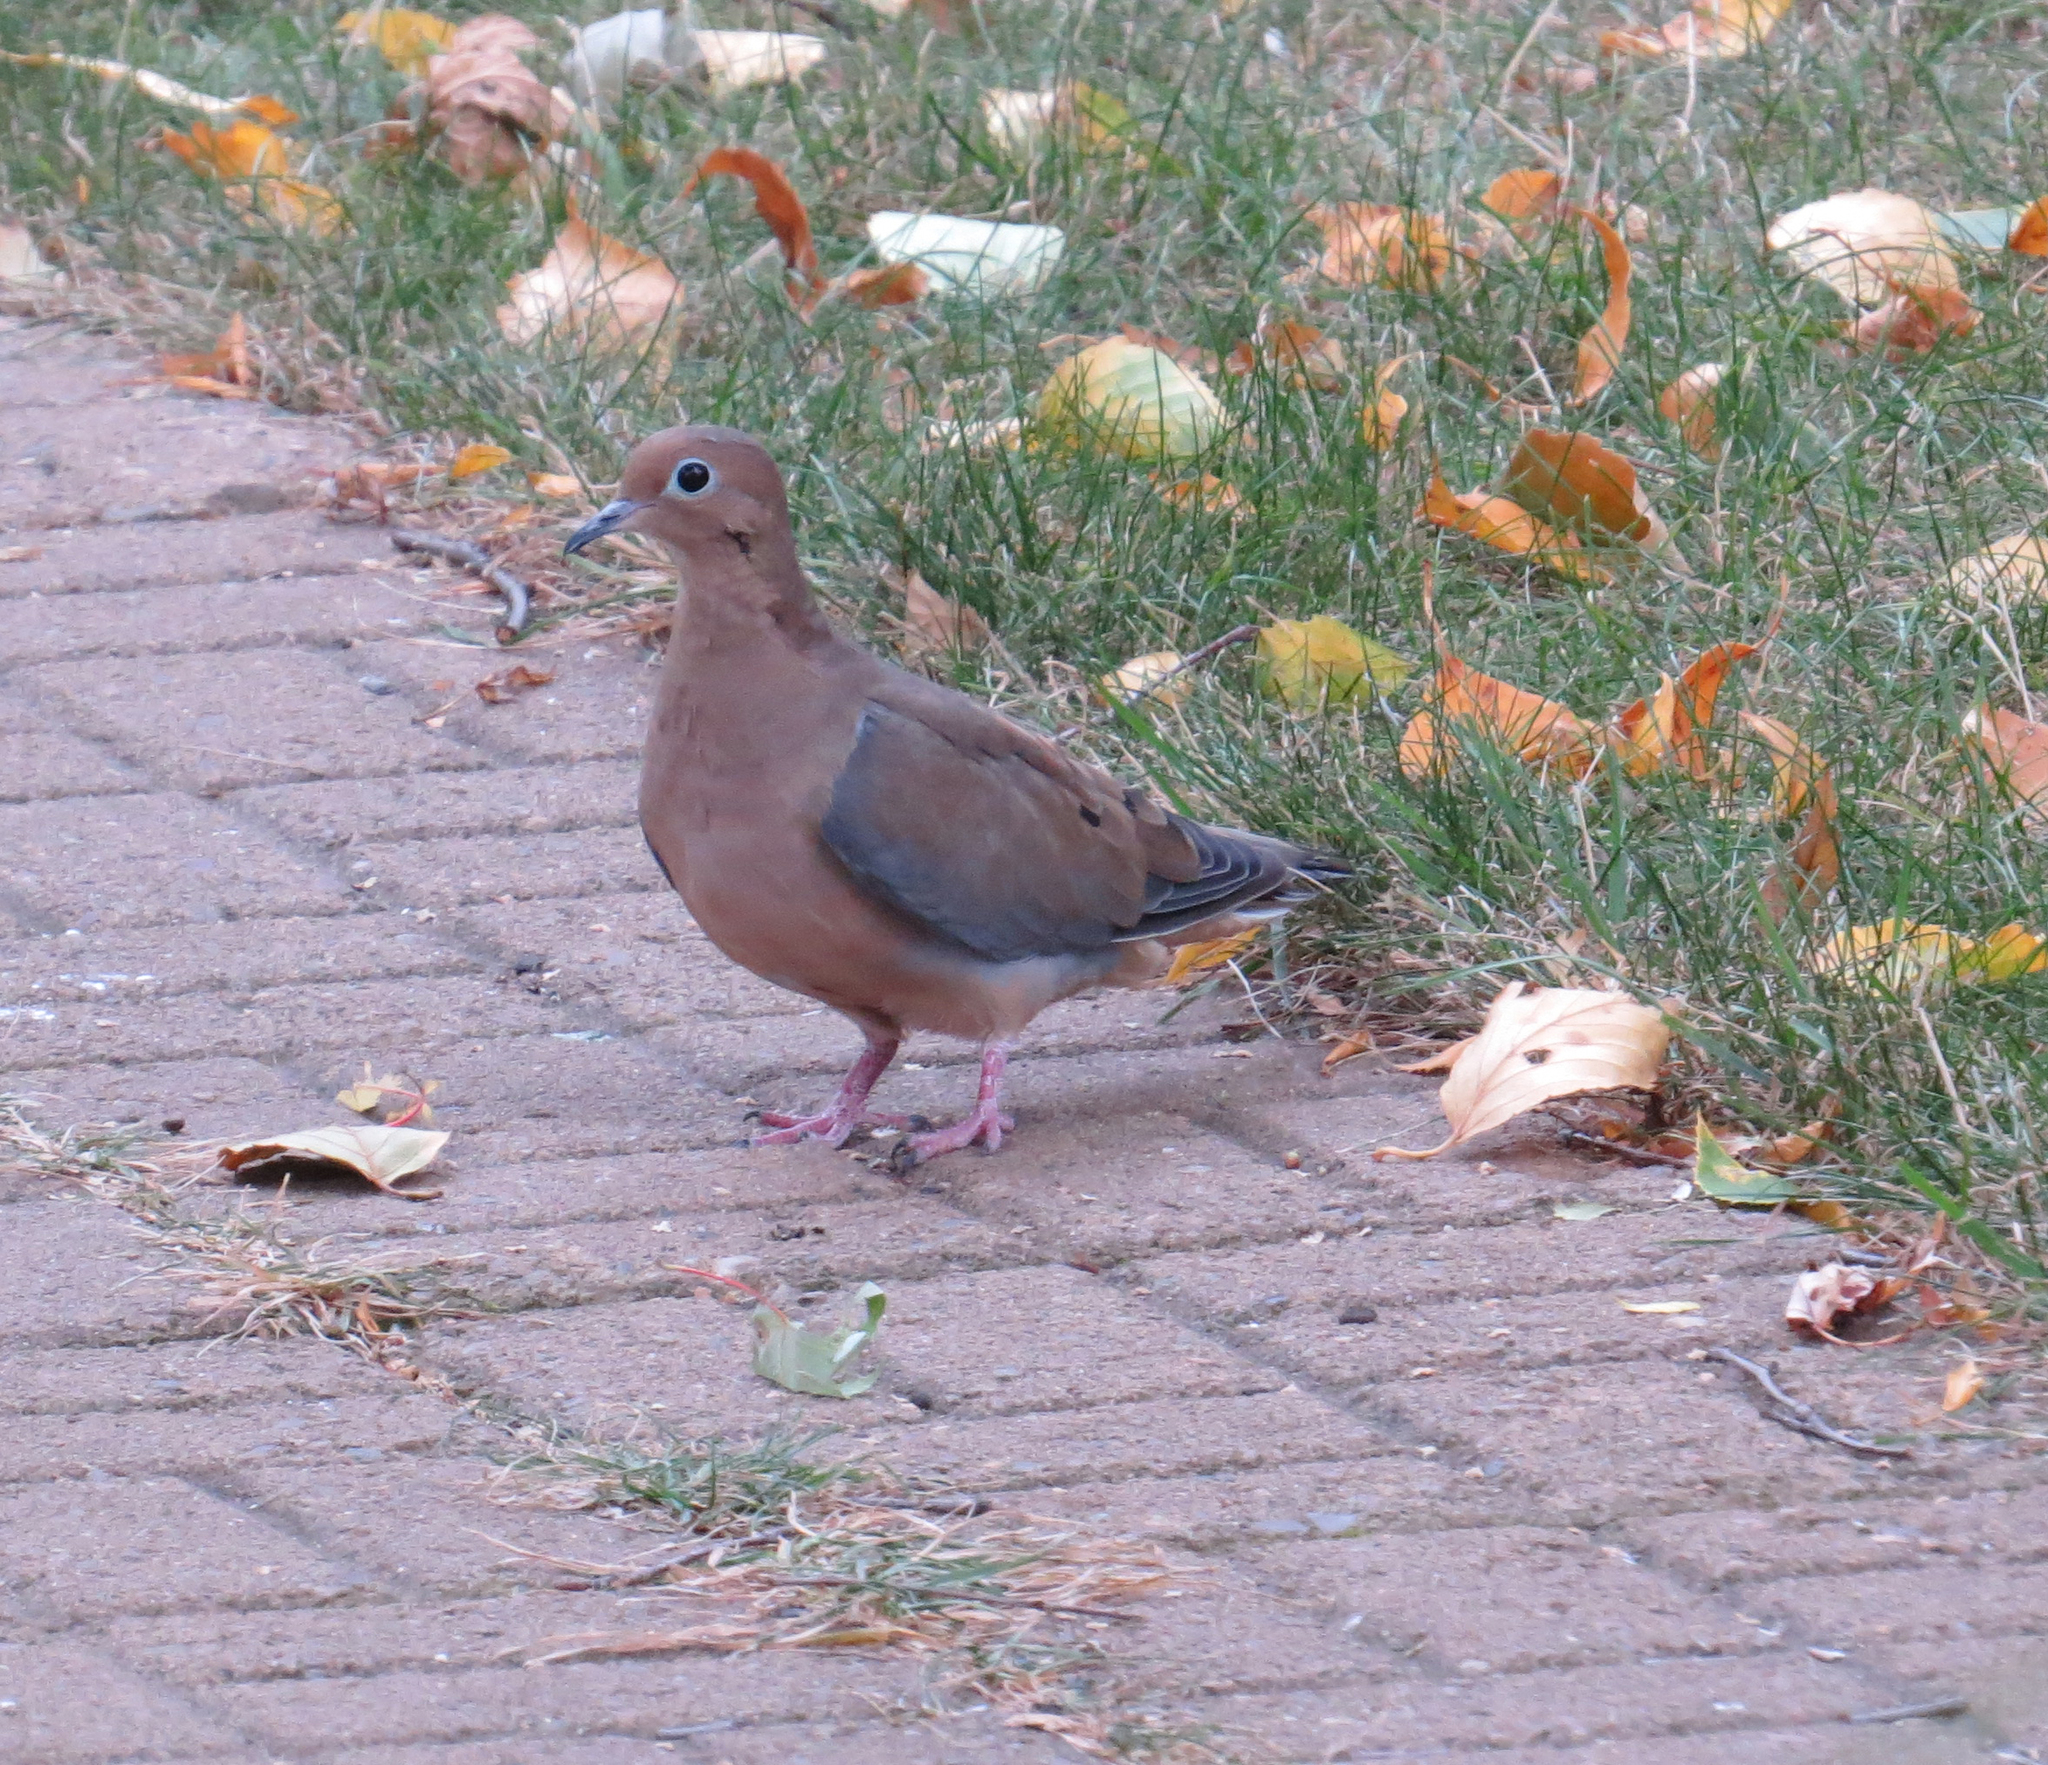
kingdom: Animalia
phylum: Chordata
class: Aves
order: Columbiformes
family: Columbidae
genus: Zenaida
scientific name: Zenaida macroura
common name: Mourning dove
